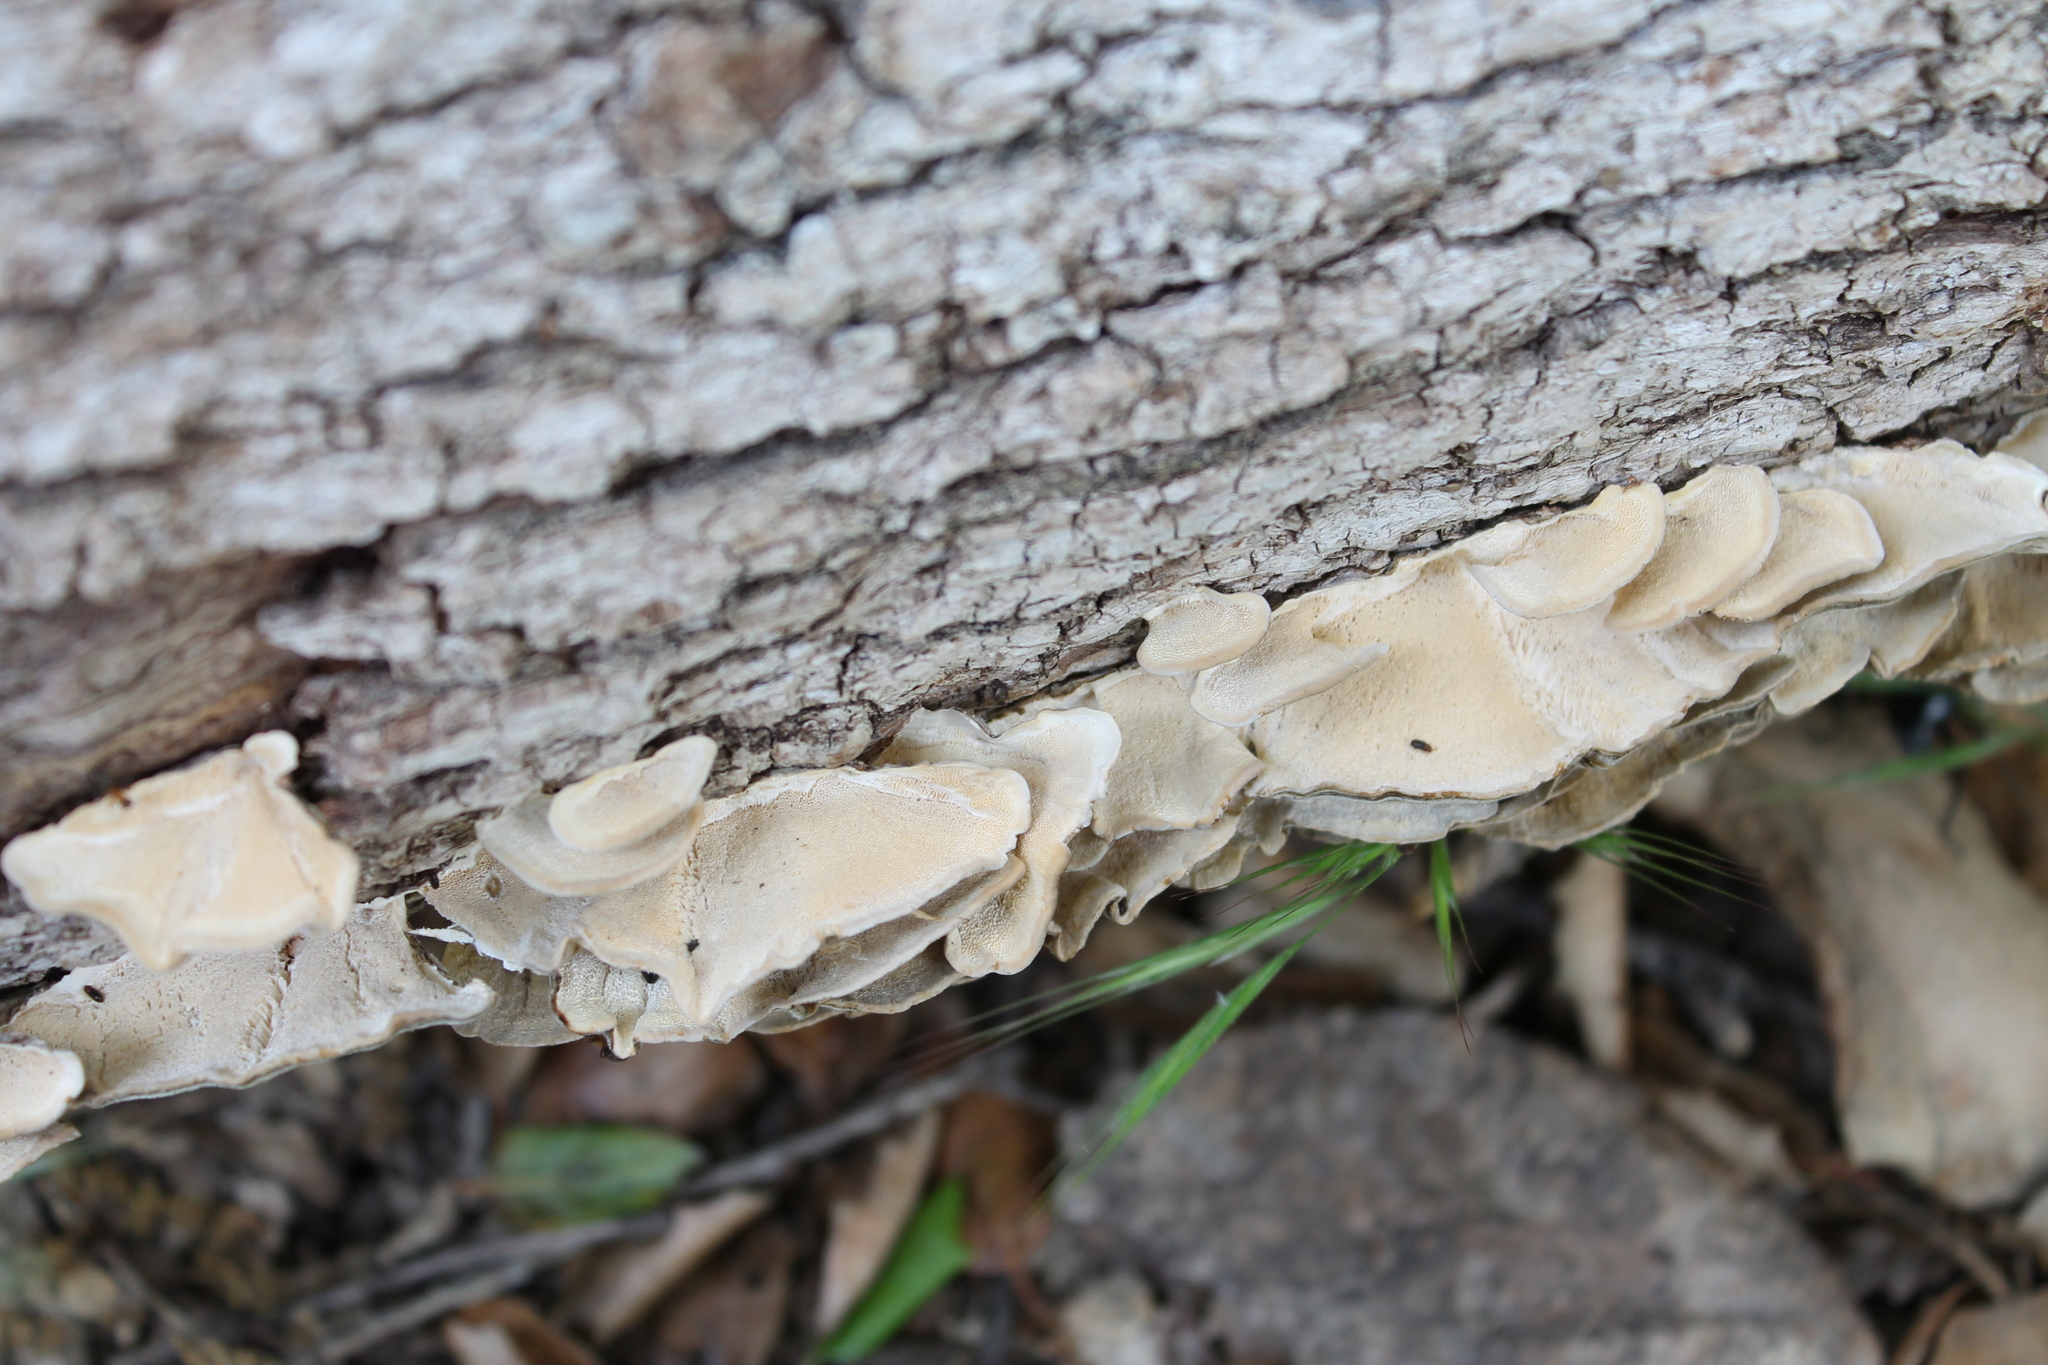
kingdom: Fungi
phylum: Basidiomycota
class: Agaricomycetes
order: Polyporales
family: Polyporaceae
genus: Trametes
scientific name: Trametes versicolor
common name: Turkeytail
